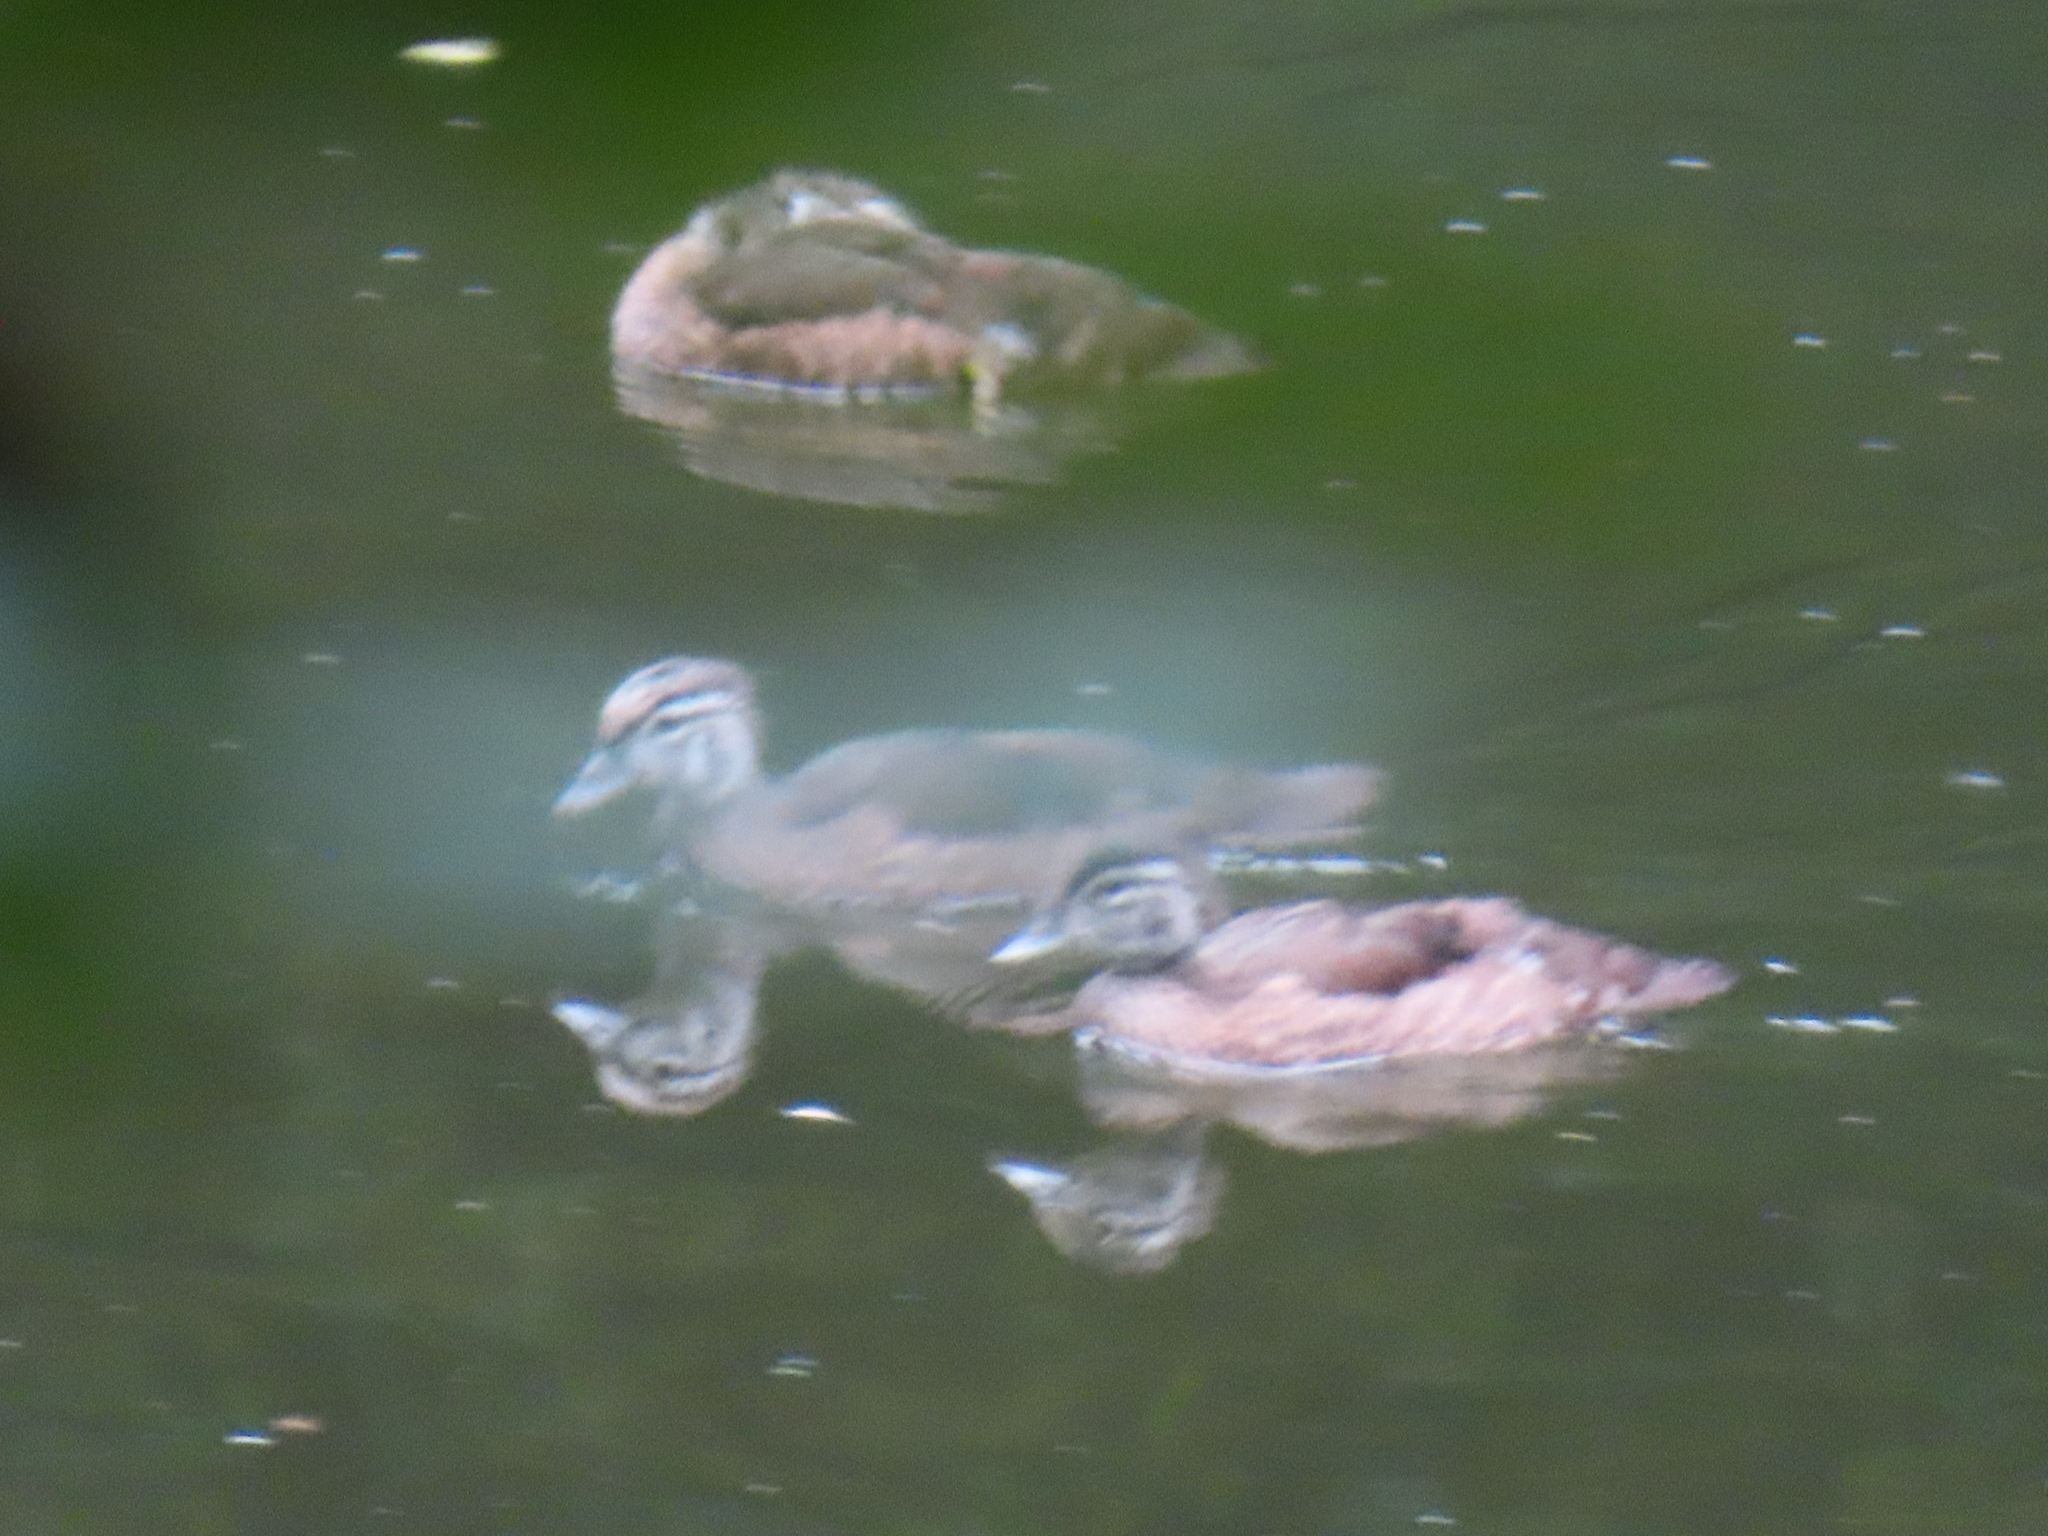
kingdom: Animalia
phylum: Chordata
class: Aves
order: Anseriformes
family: Anatidae
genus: Aix
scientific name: Aix sponsa
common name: Wood duck
